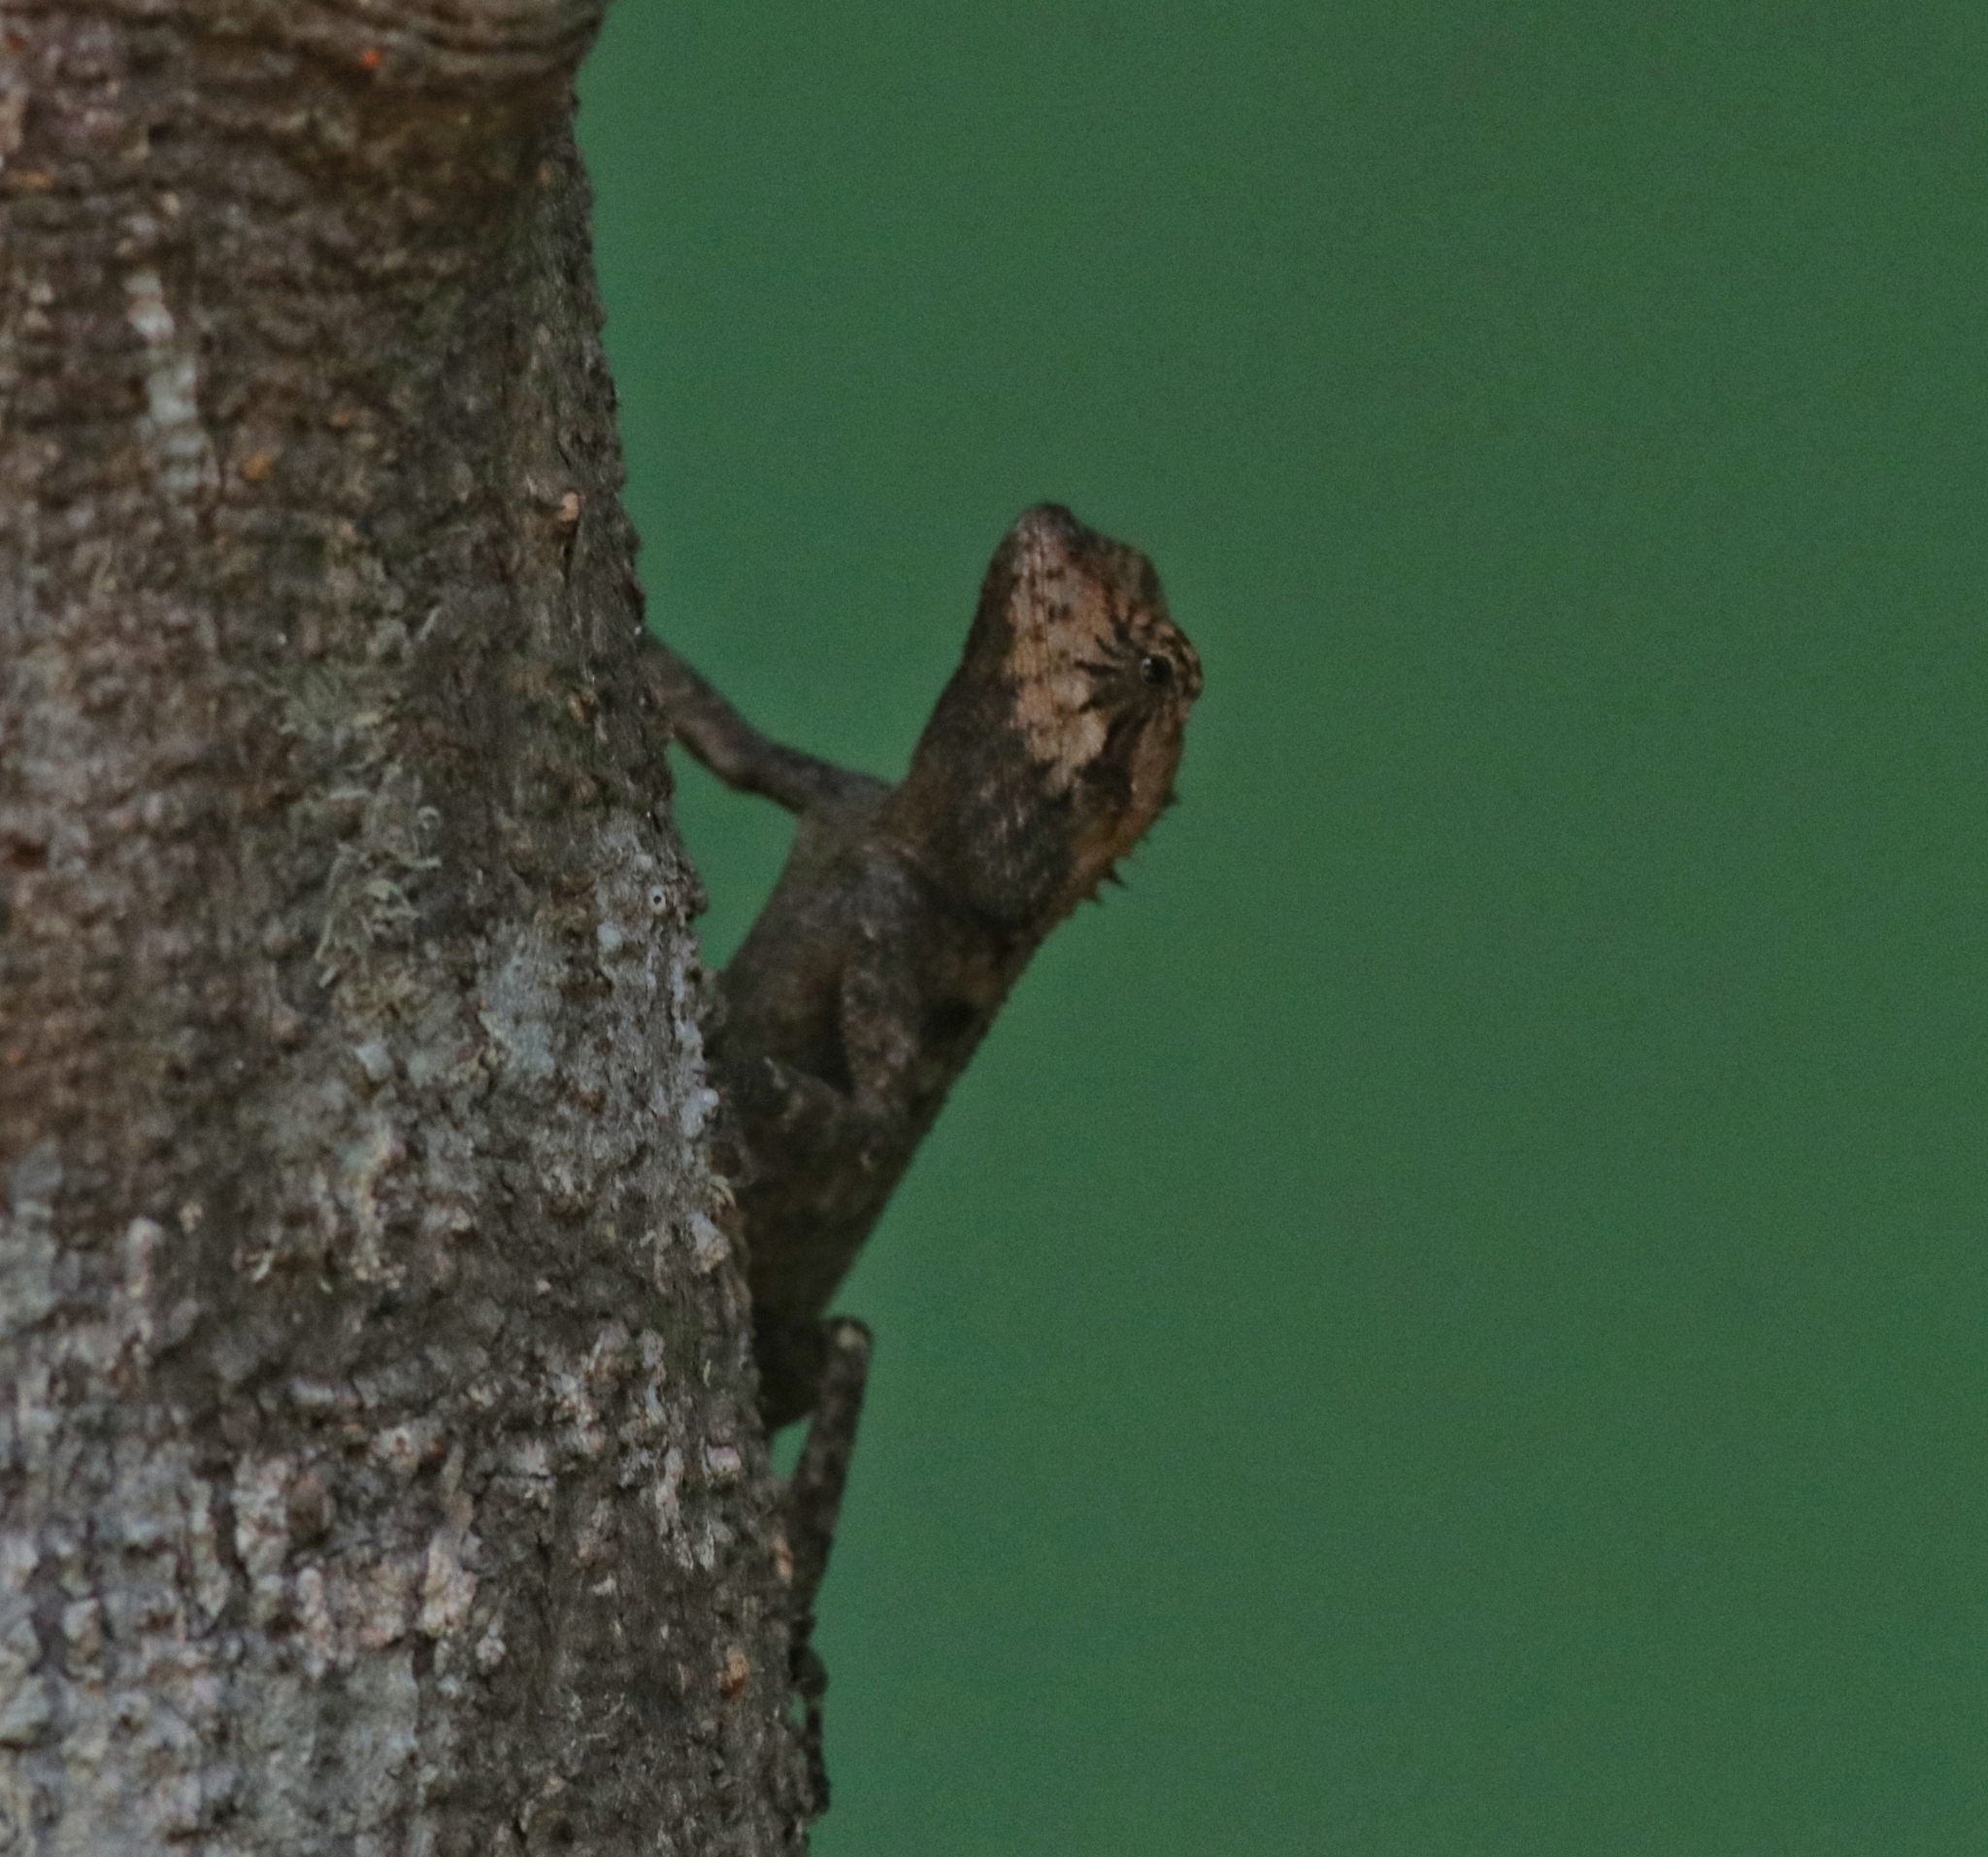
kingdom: Animalia
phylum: Chordata
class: Squamata
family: Agamidae
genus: Monilesaurus
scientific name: Monilesaurus rouxii
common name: Roux's forest lizard
